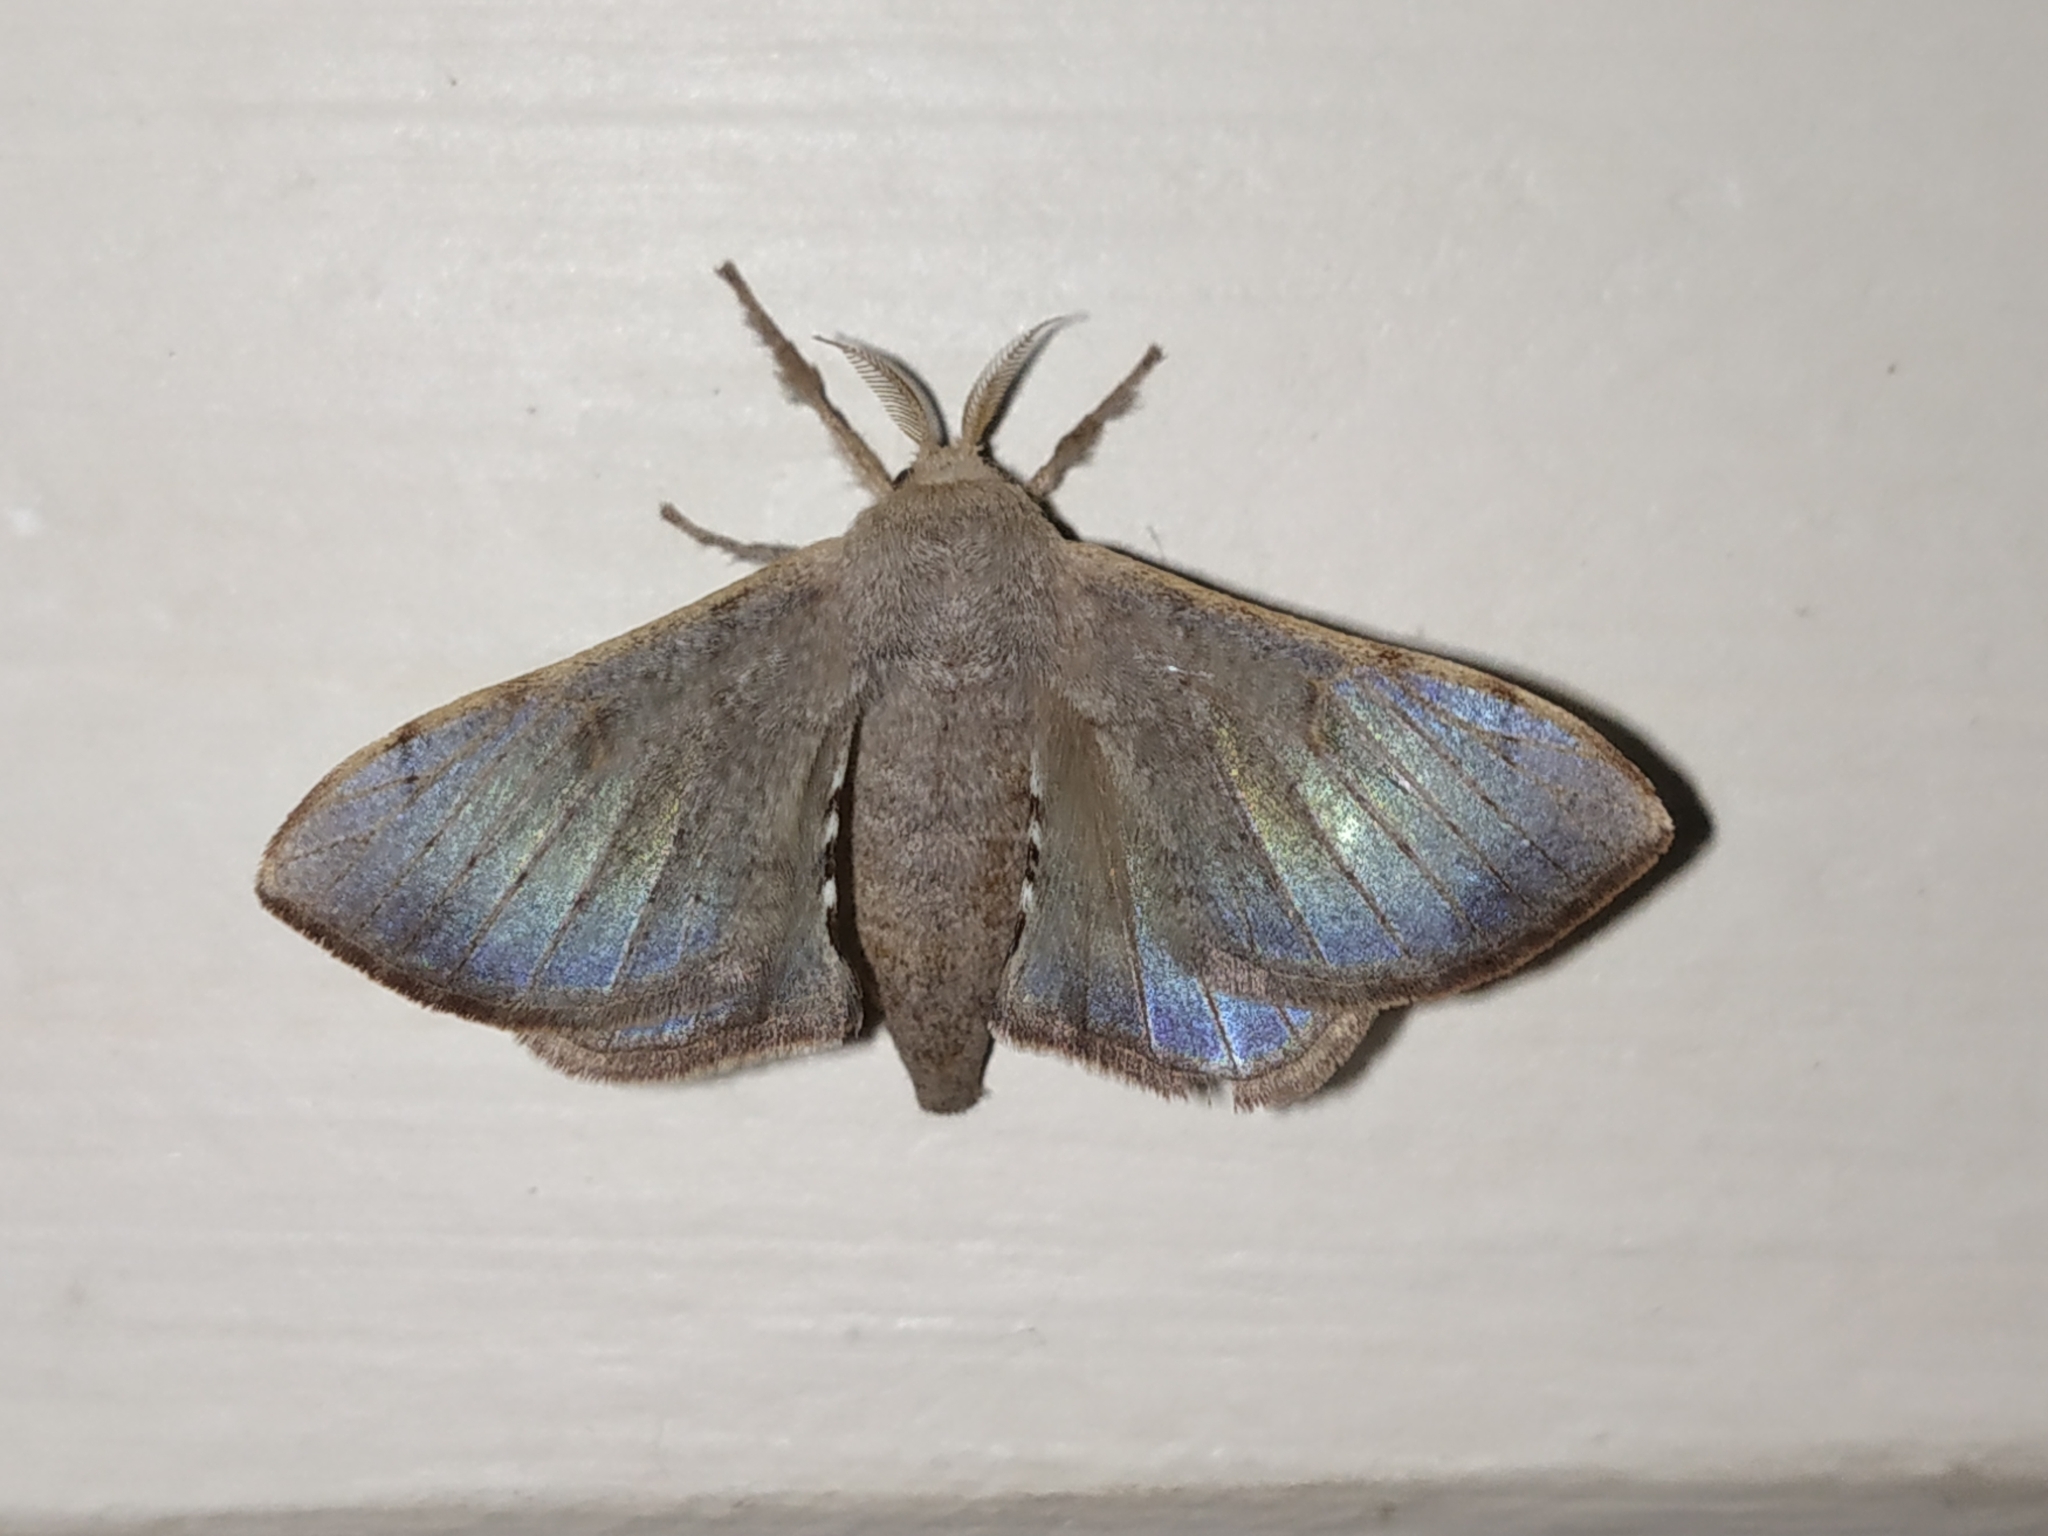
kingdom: Animalia
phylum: Arthropoda
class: Insecta
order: Lepidoptera
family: Bombycidae
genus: Trilocha
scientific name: Trilocha varians
